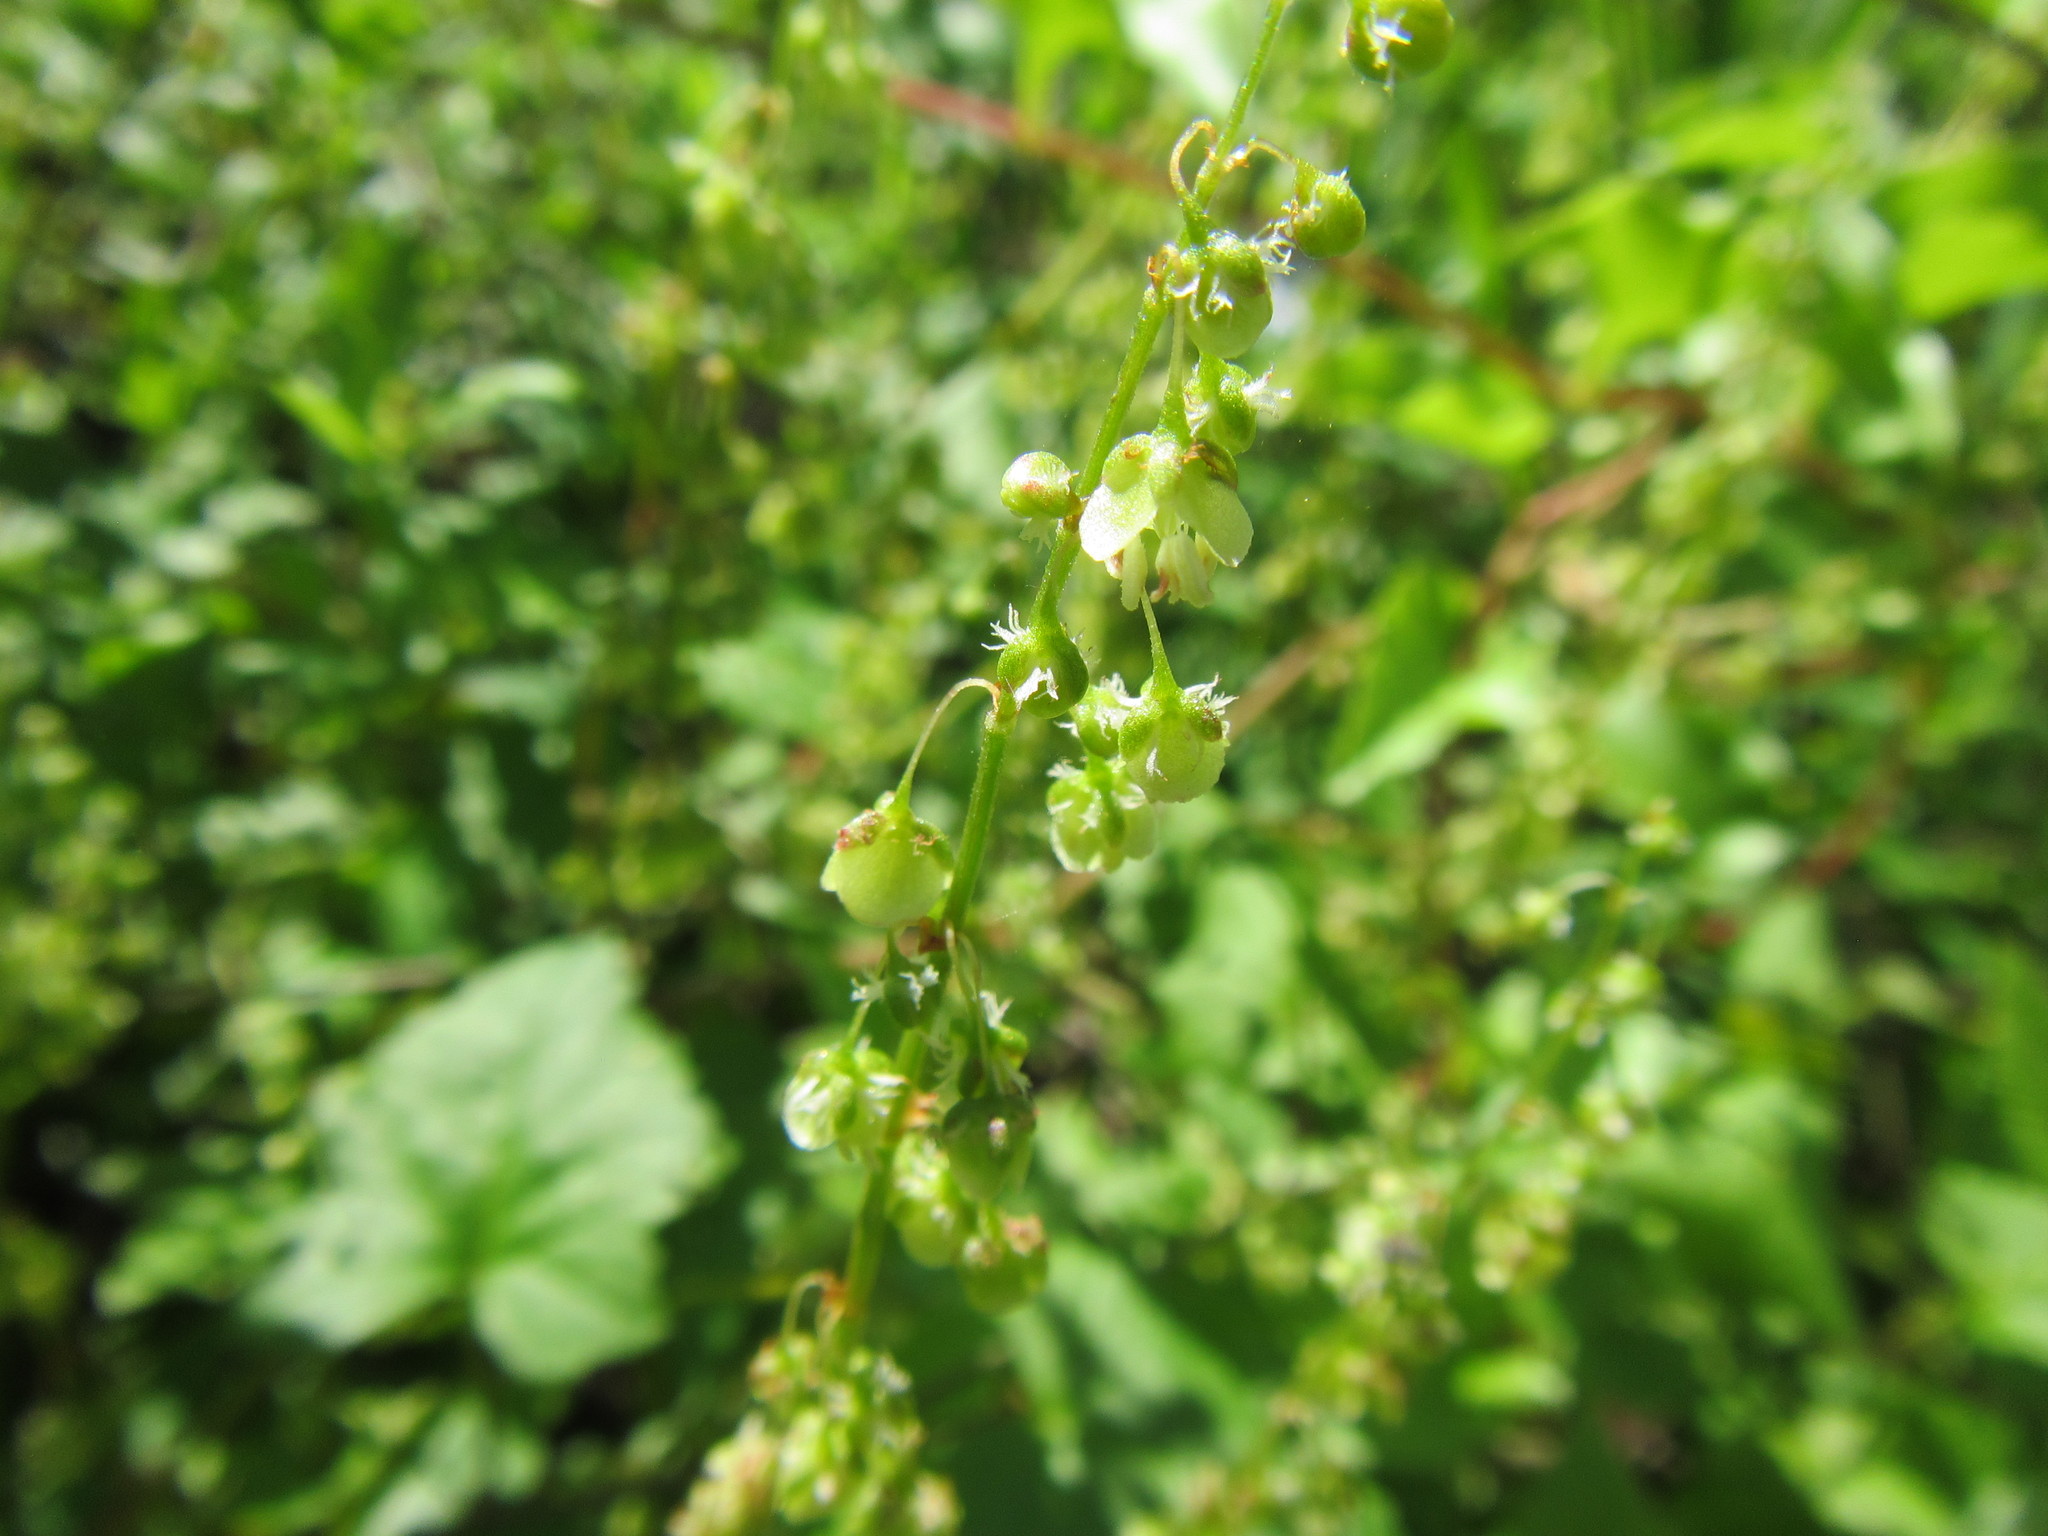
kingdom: Plantae
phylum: Tracheophyta
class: Magnoliopsida
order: Caryophyllales
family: Polygonaceae
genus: Rumex
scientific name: Rumex sagittatus
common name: Climbing dock
